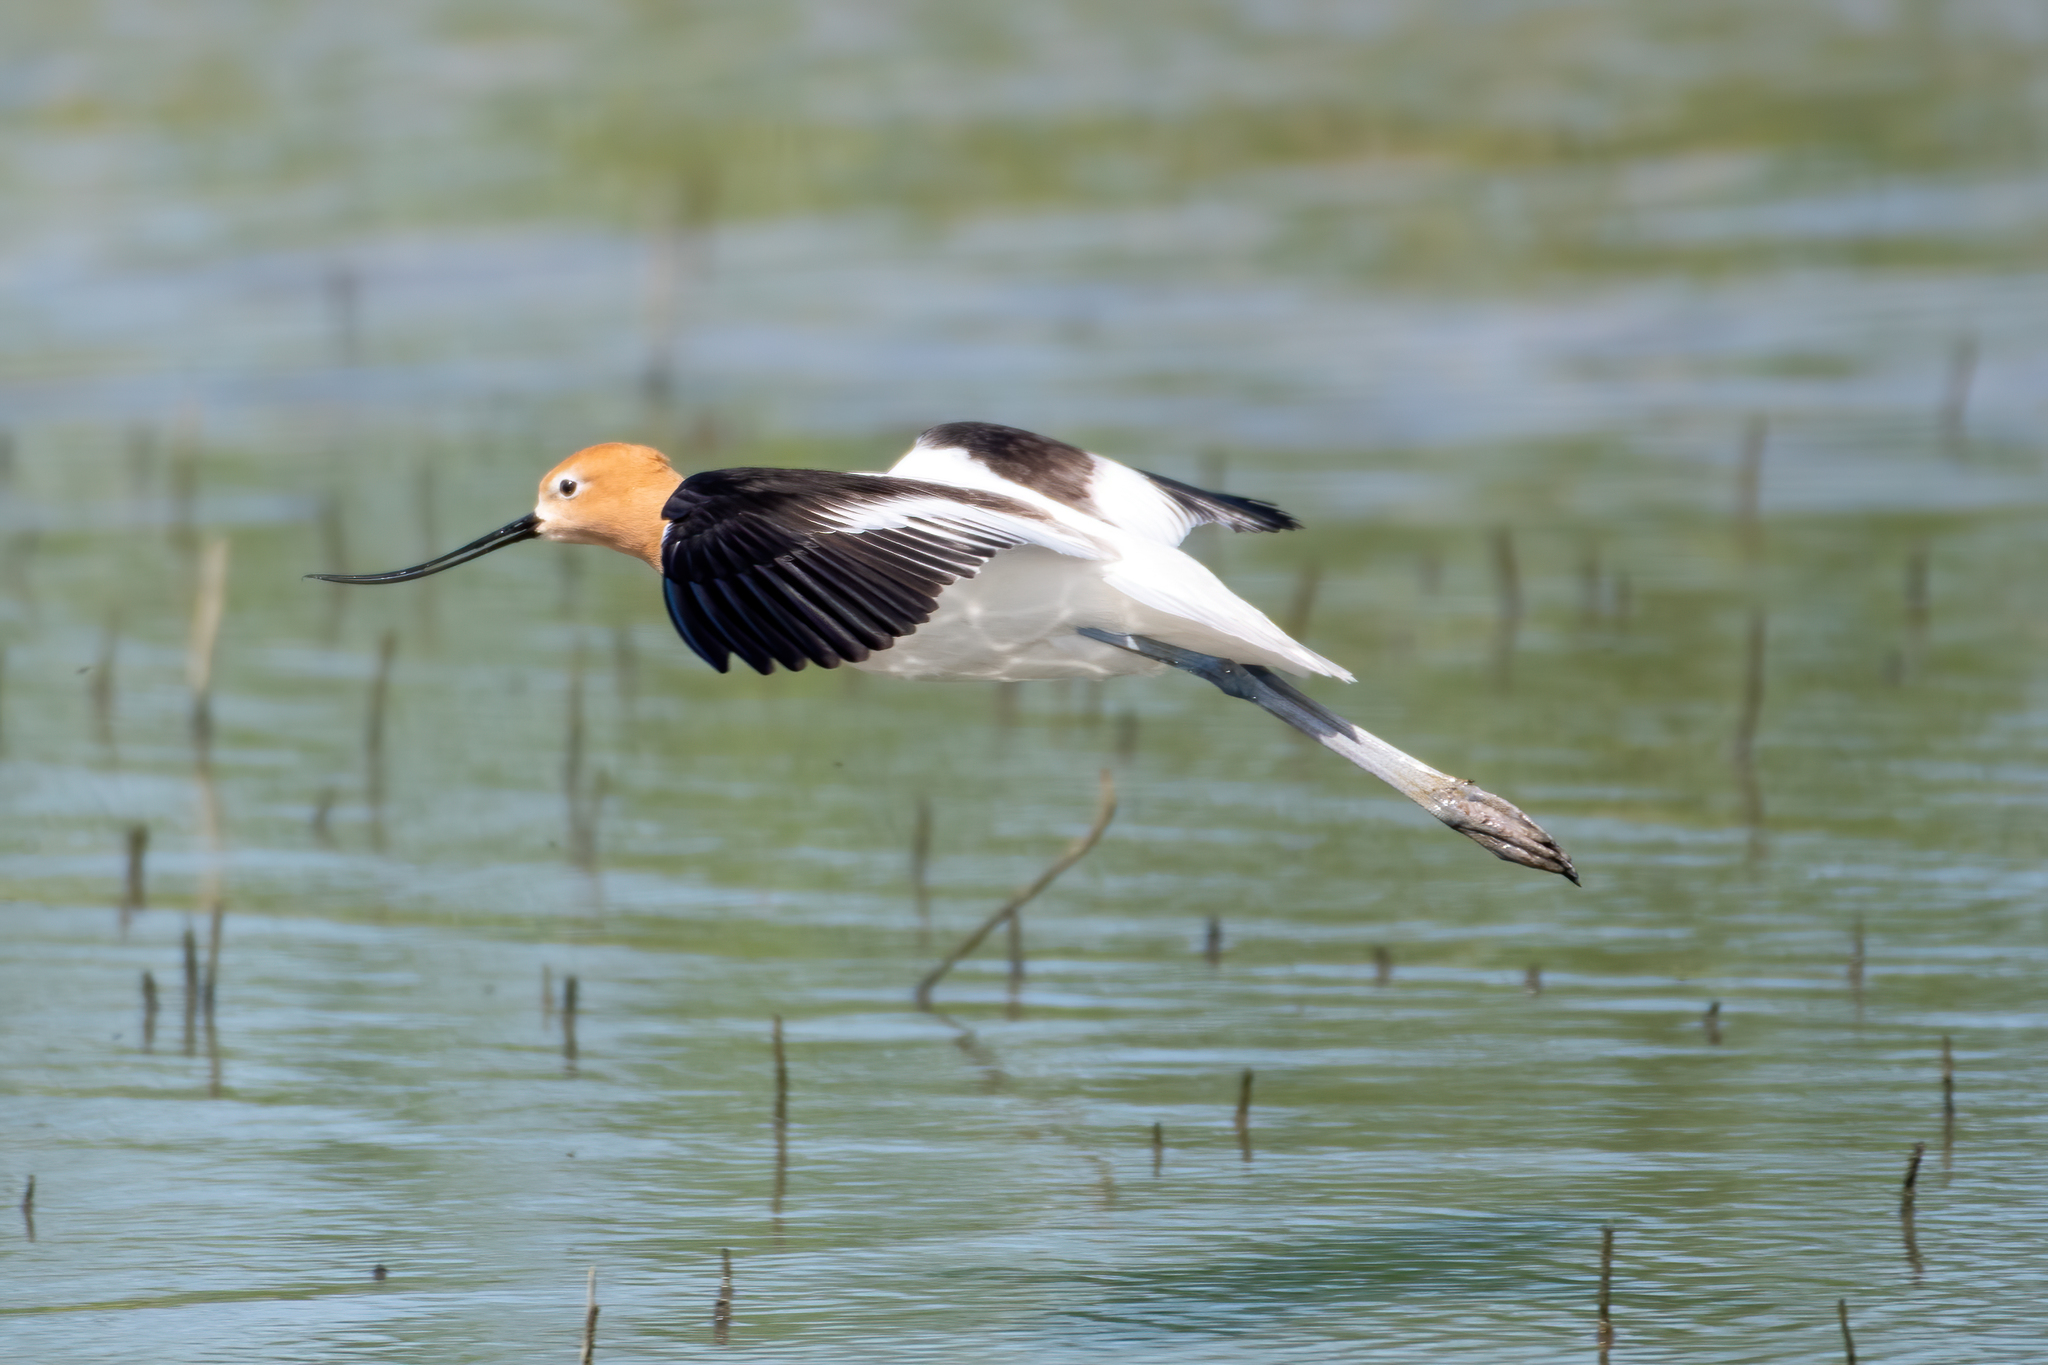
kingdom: Animalia
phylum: Chordata
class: Aves
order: Charadriiformes
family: Recurvirostridae
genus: Recurvirostra
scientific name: Recurvirostra americana
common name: American avocet
